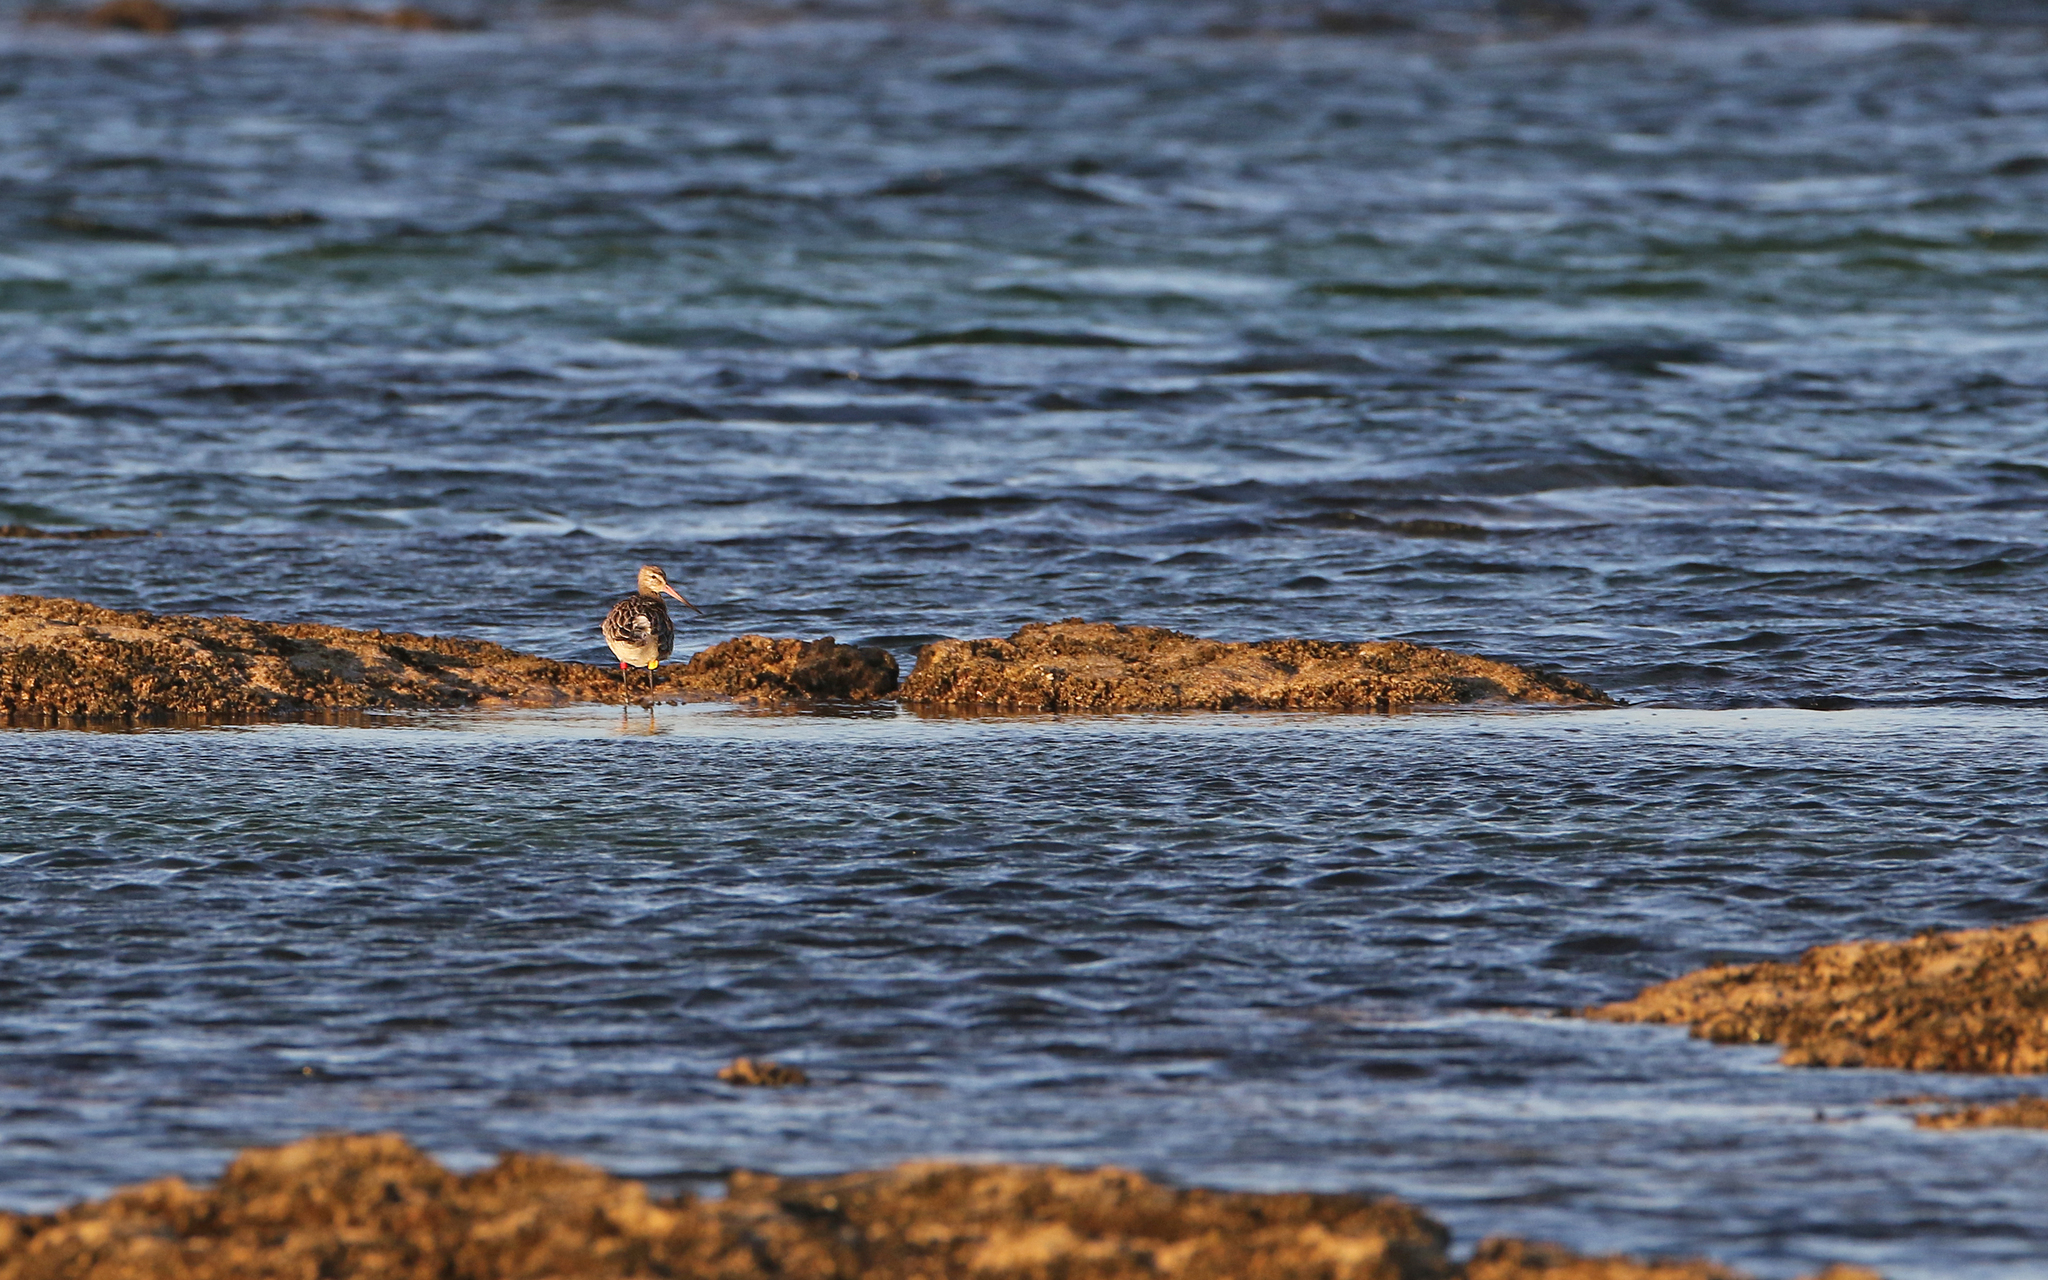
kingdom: Animalia
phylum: Chordata
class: Aves
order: Charadriiformes
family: Scolopacidae
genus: Limosa
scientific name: Limosa lapponica
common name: Bar-tailed godwit
